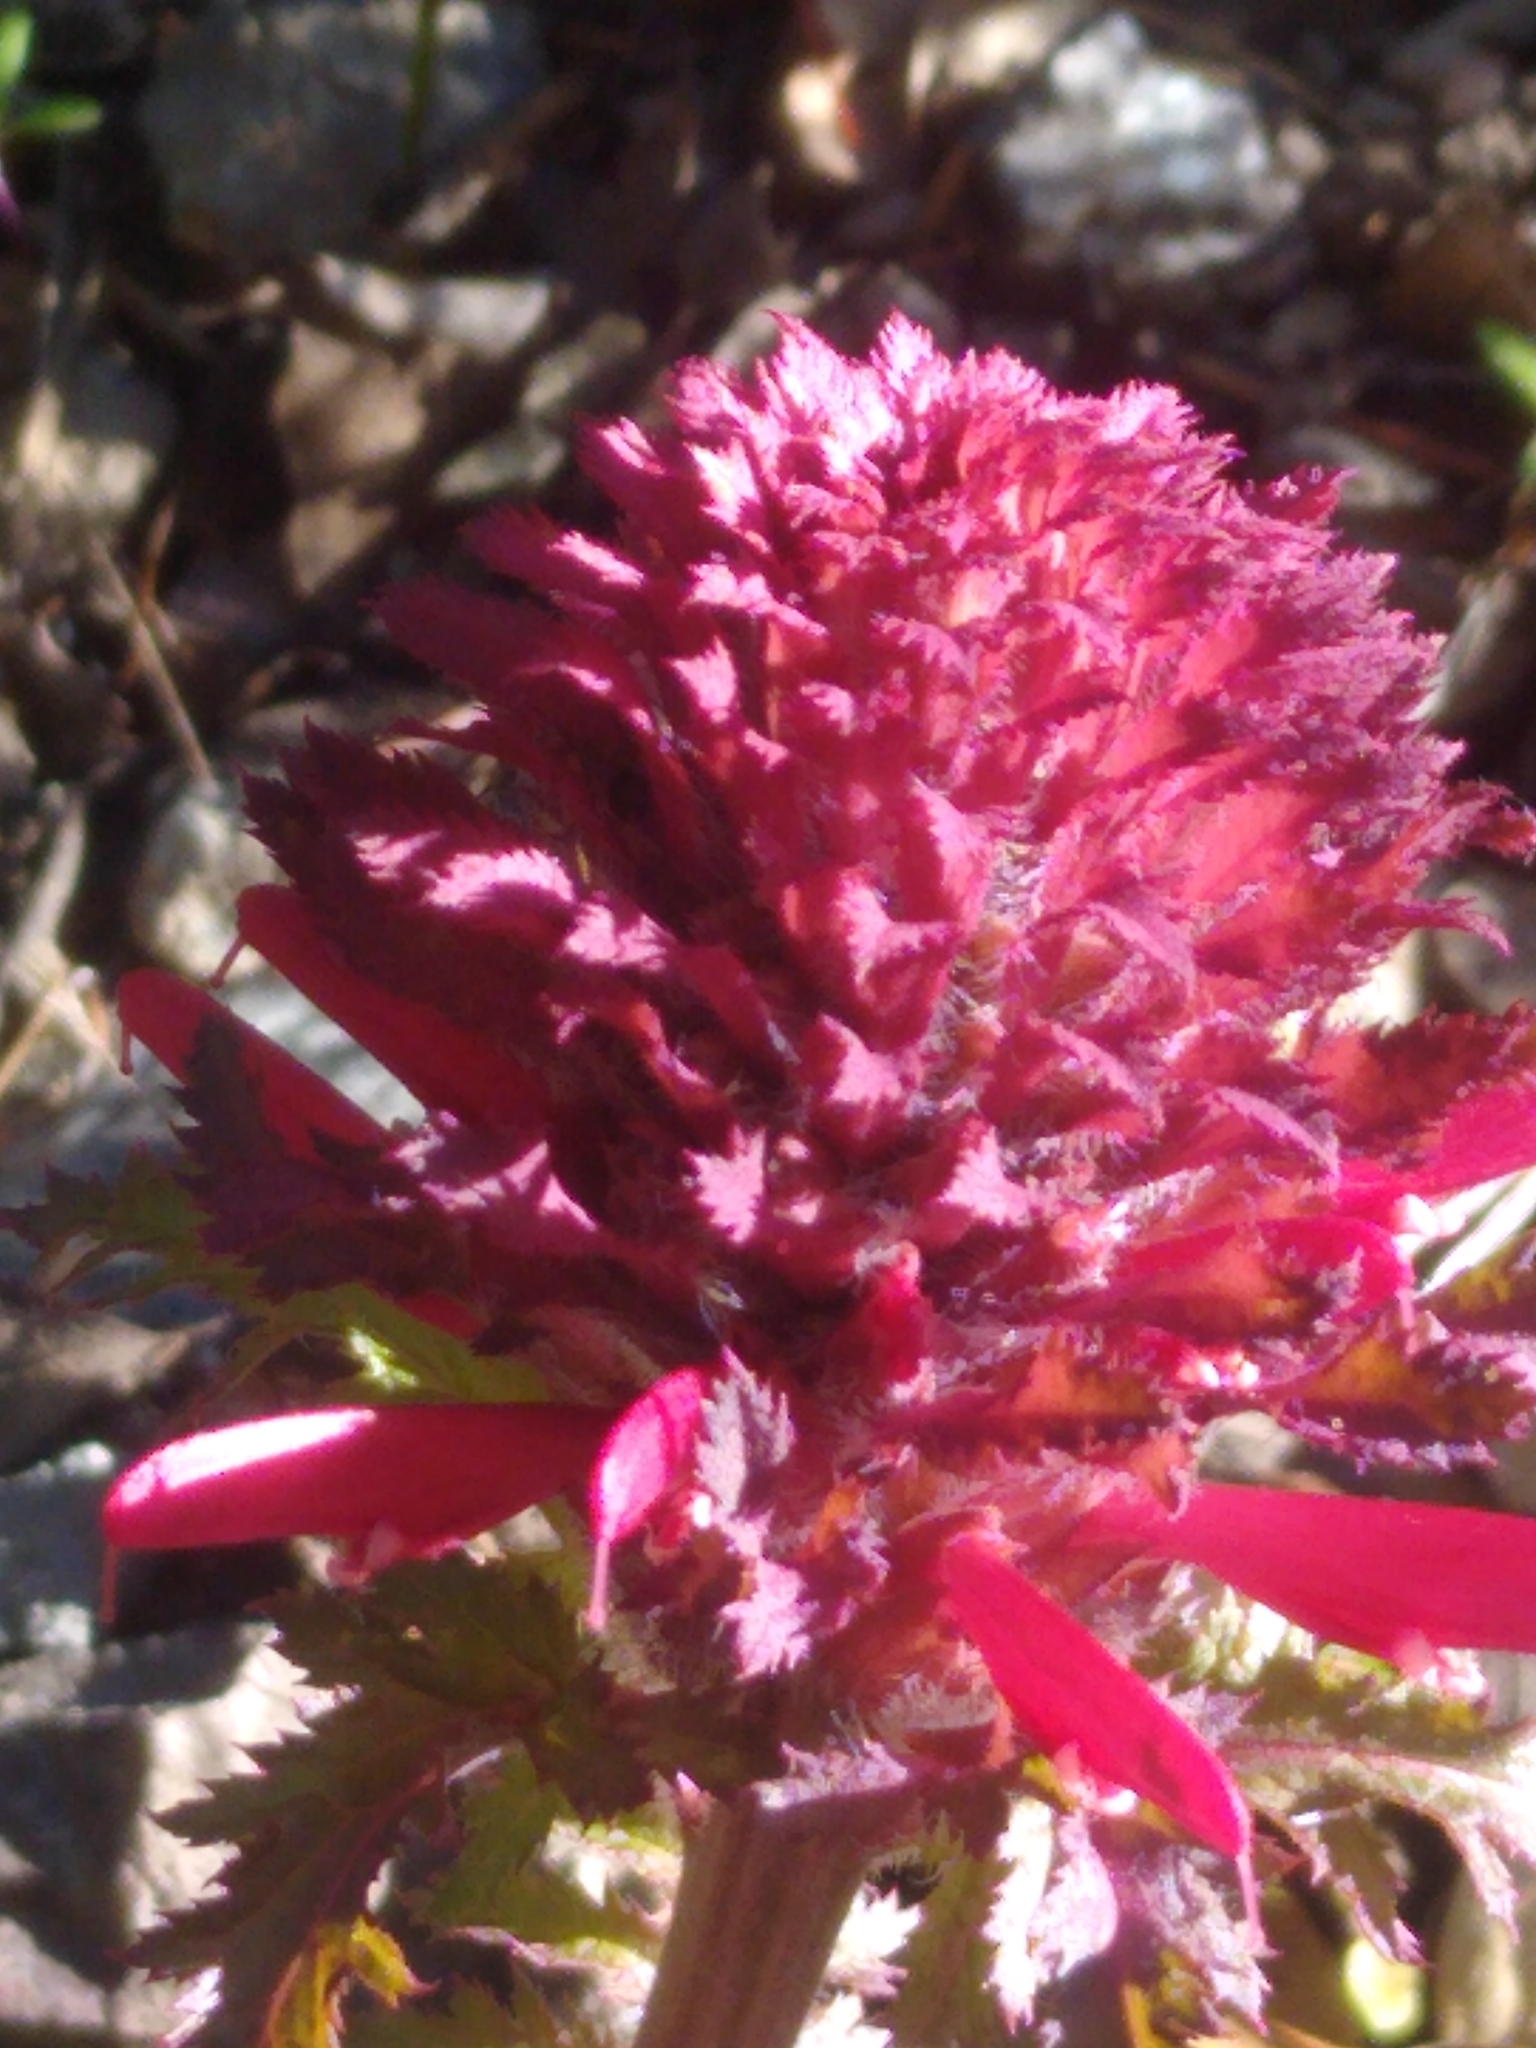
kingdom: Plantae
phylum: Tracheophyta
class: Magnoliopsida
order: Lamiales
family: Orobanchaceae
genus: Pedicularis
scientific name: Pedicularis densiflora
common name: Indian warrior
